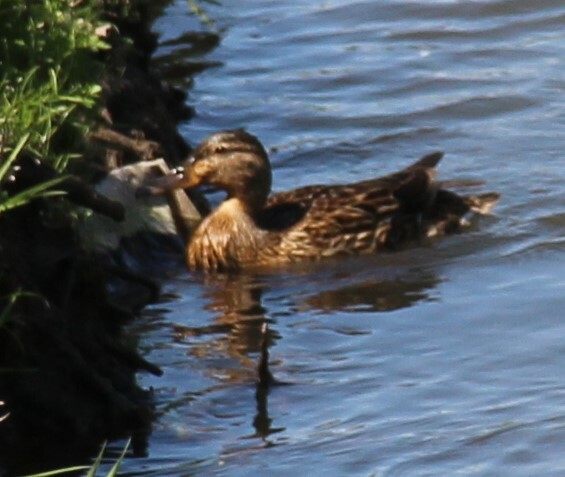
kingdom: Animalia
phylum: Chordata
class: Aves
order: Anseriformes
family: Anatidae
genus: Anas
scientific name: Anas platyrhynchos
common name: Mallard
